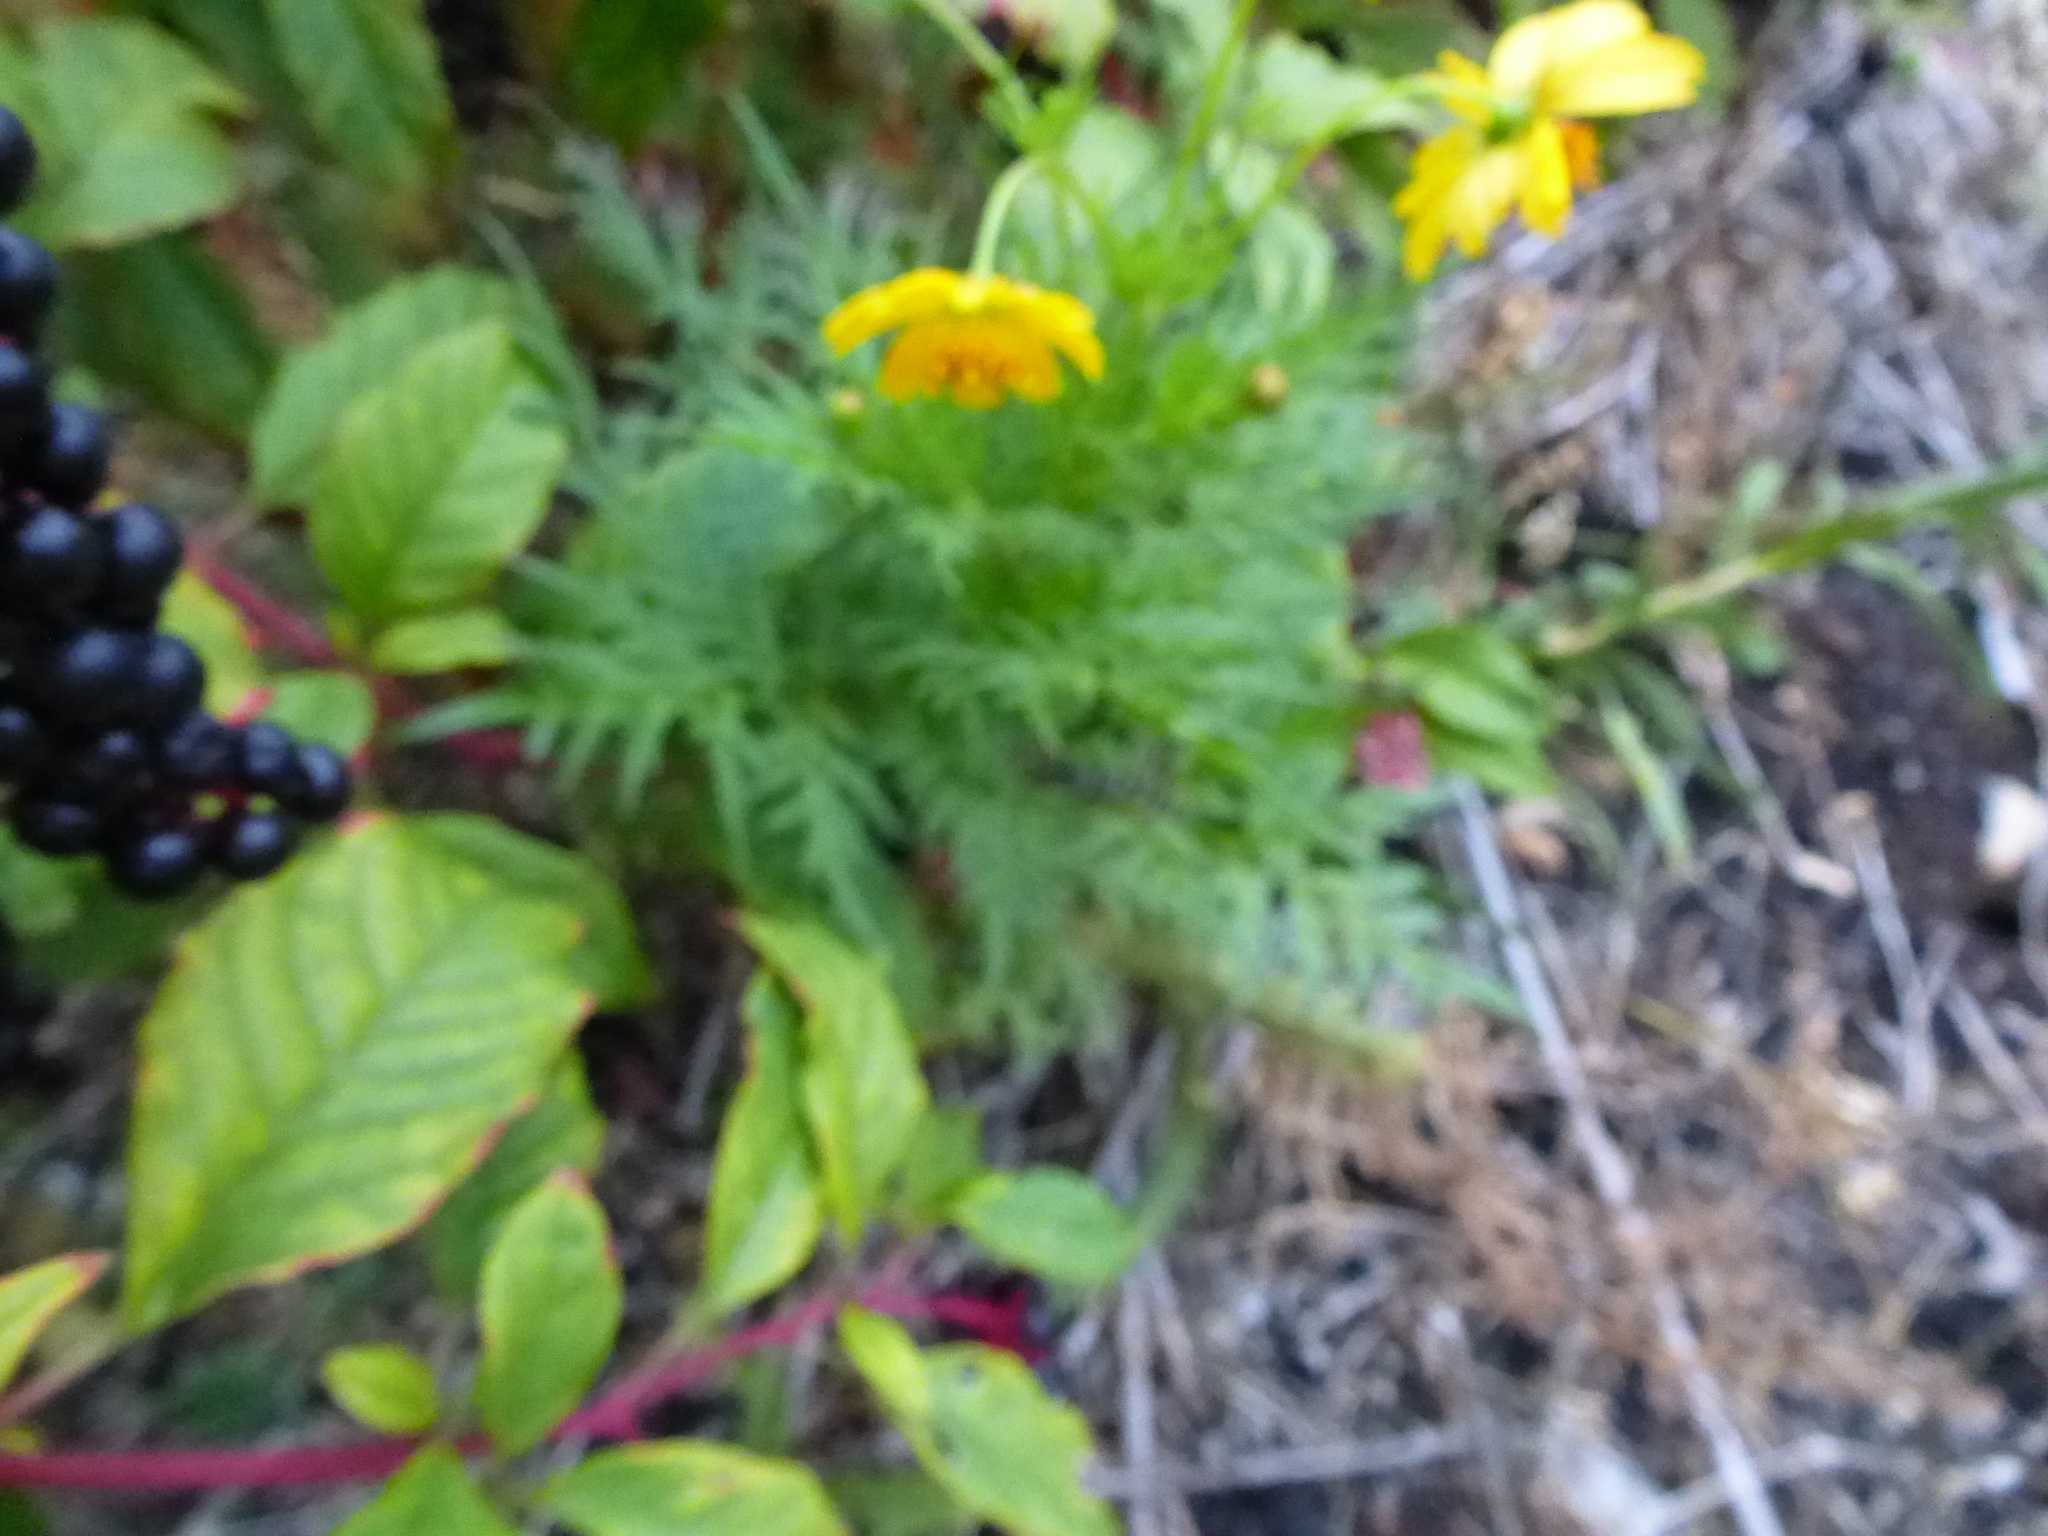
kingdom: Plantae
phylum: Tracheophyta
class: Magnoliopsida
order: Asterales
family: Asteraceae
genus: Cosmos
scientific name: Cosmos sulphureus
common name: Sulphur cosmos
